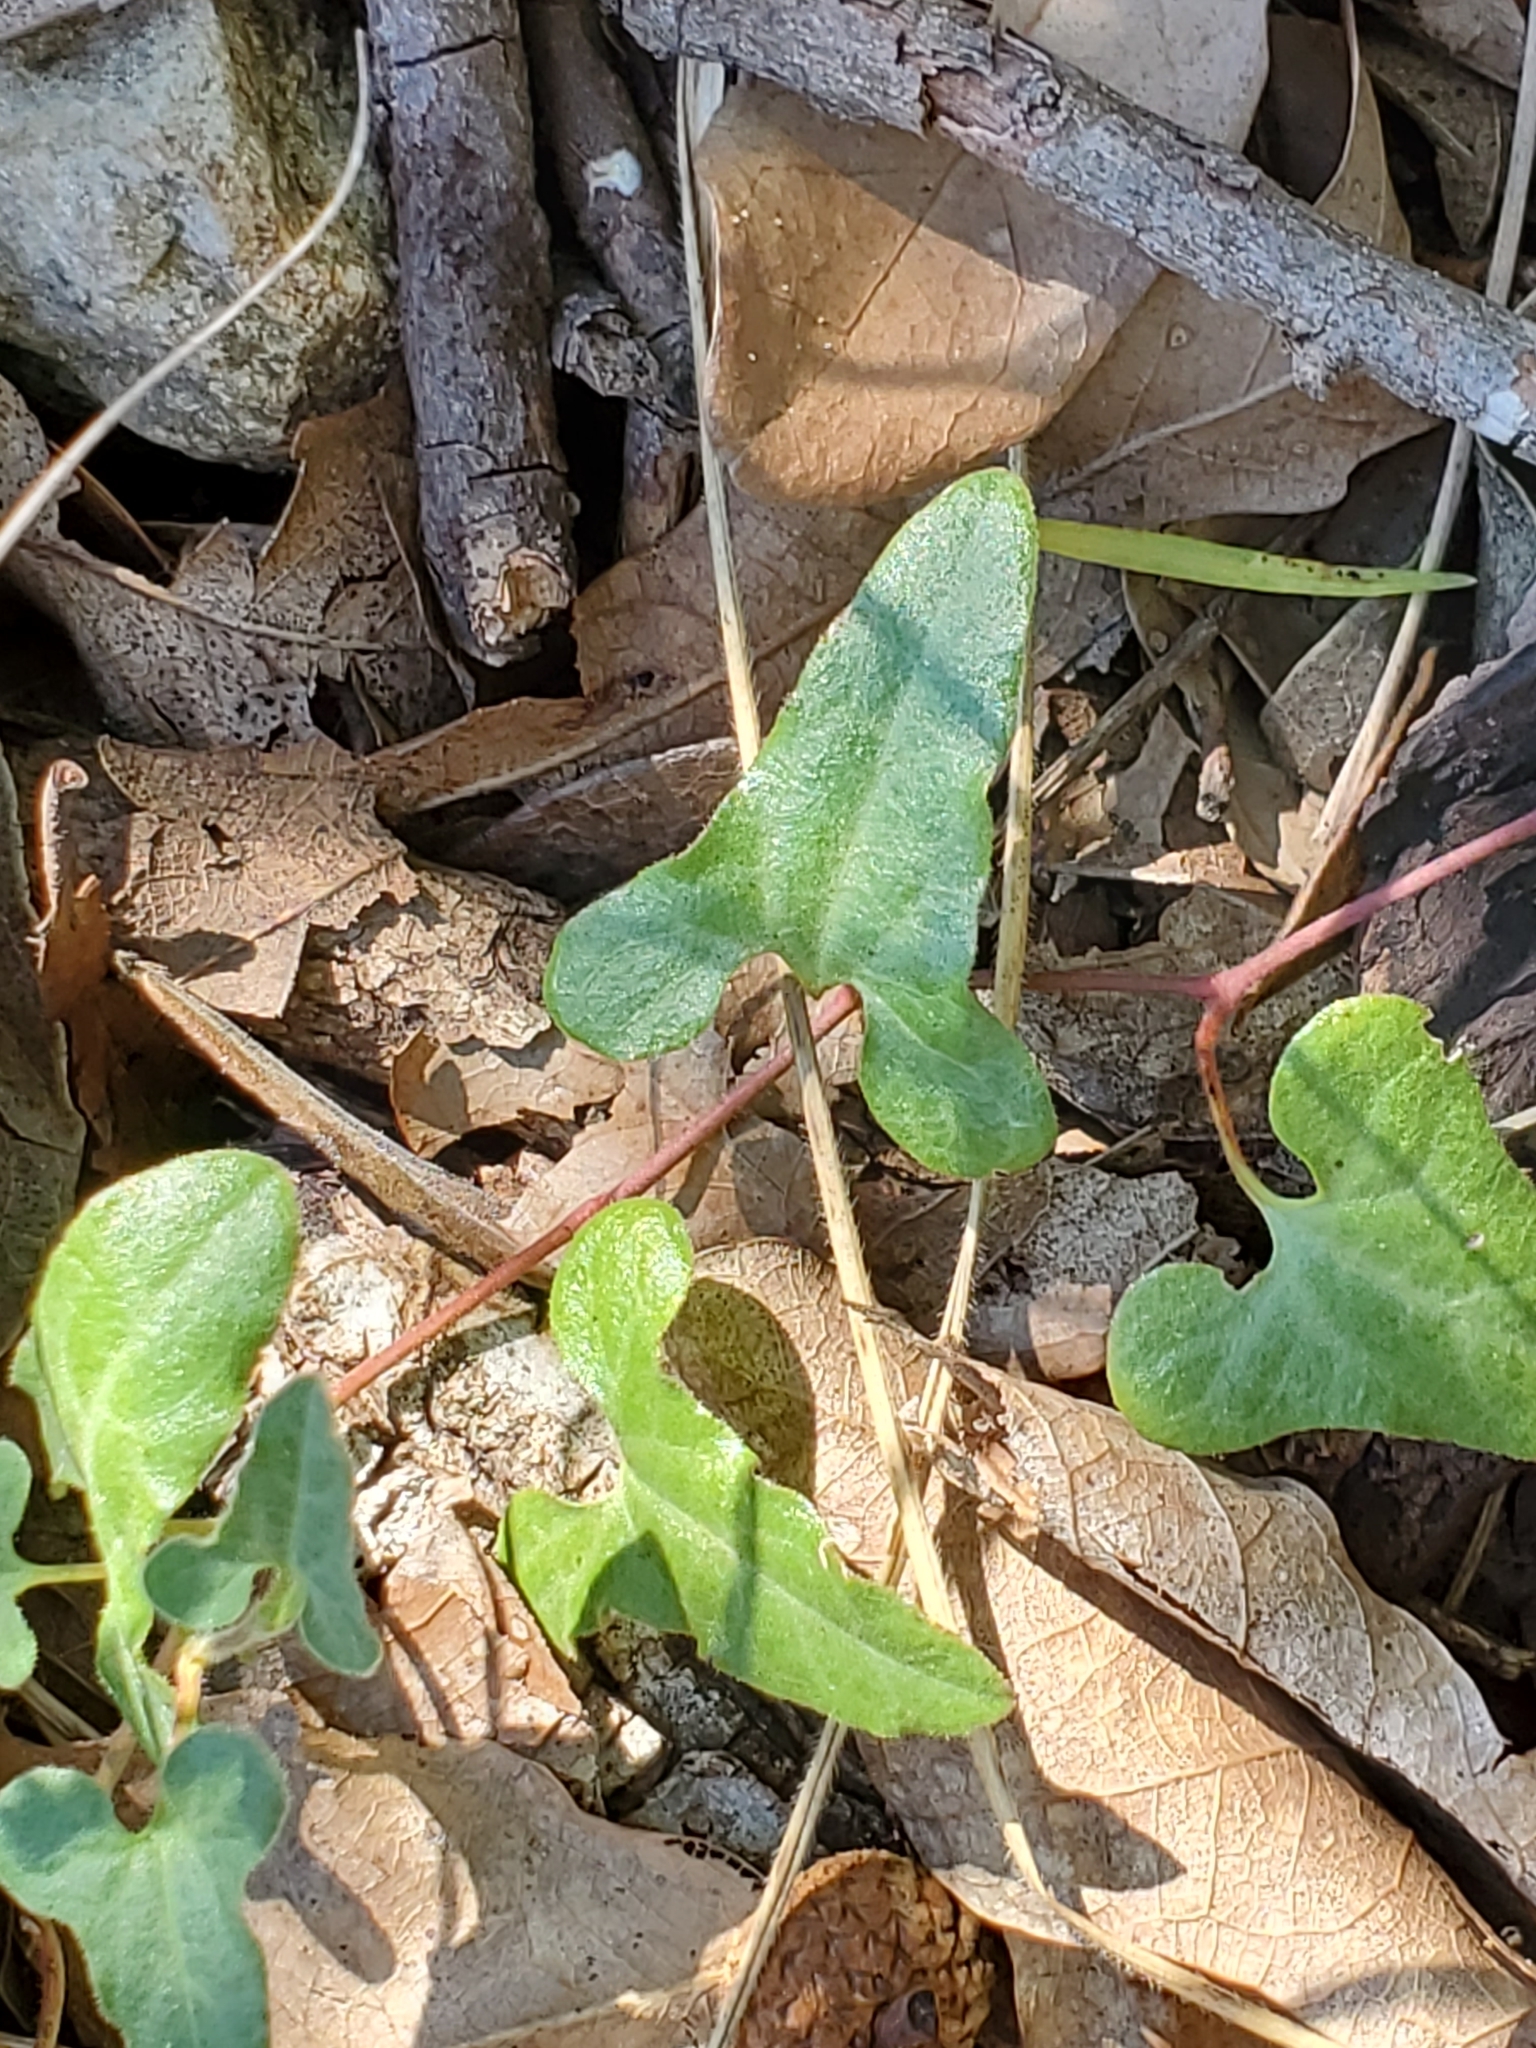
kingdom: Plantae
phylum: Tracheophyta
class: Magnoliopsida
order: Piperales
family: Aristolochiaceae
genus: Aristolochia
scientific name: Aristolochia coryi
